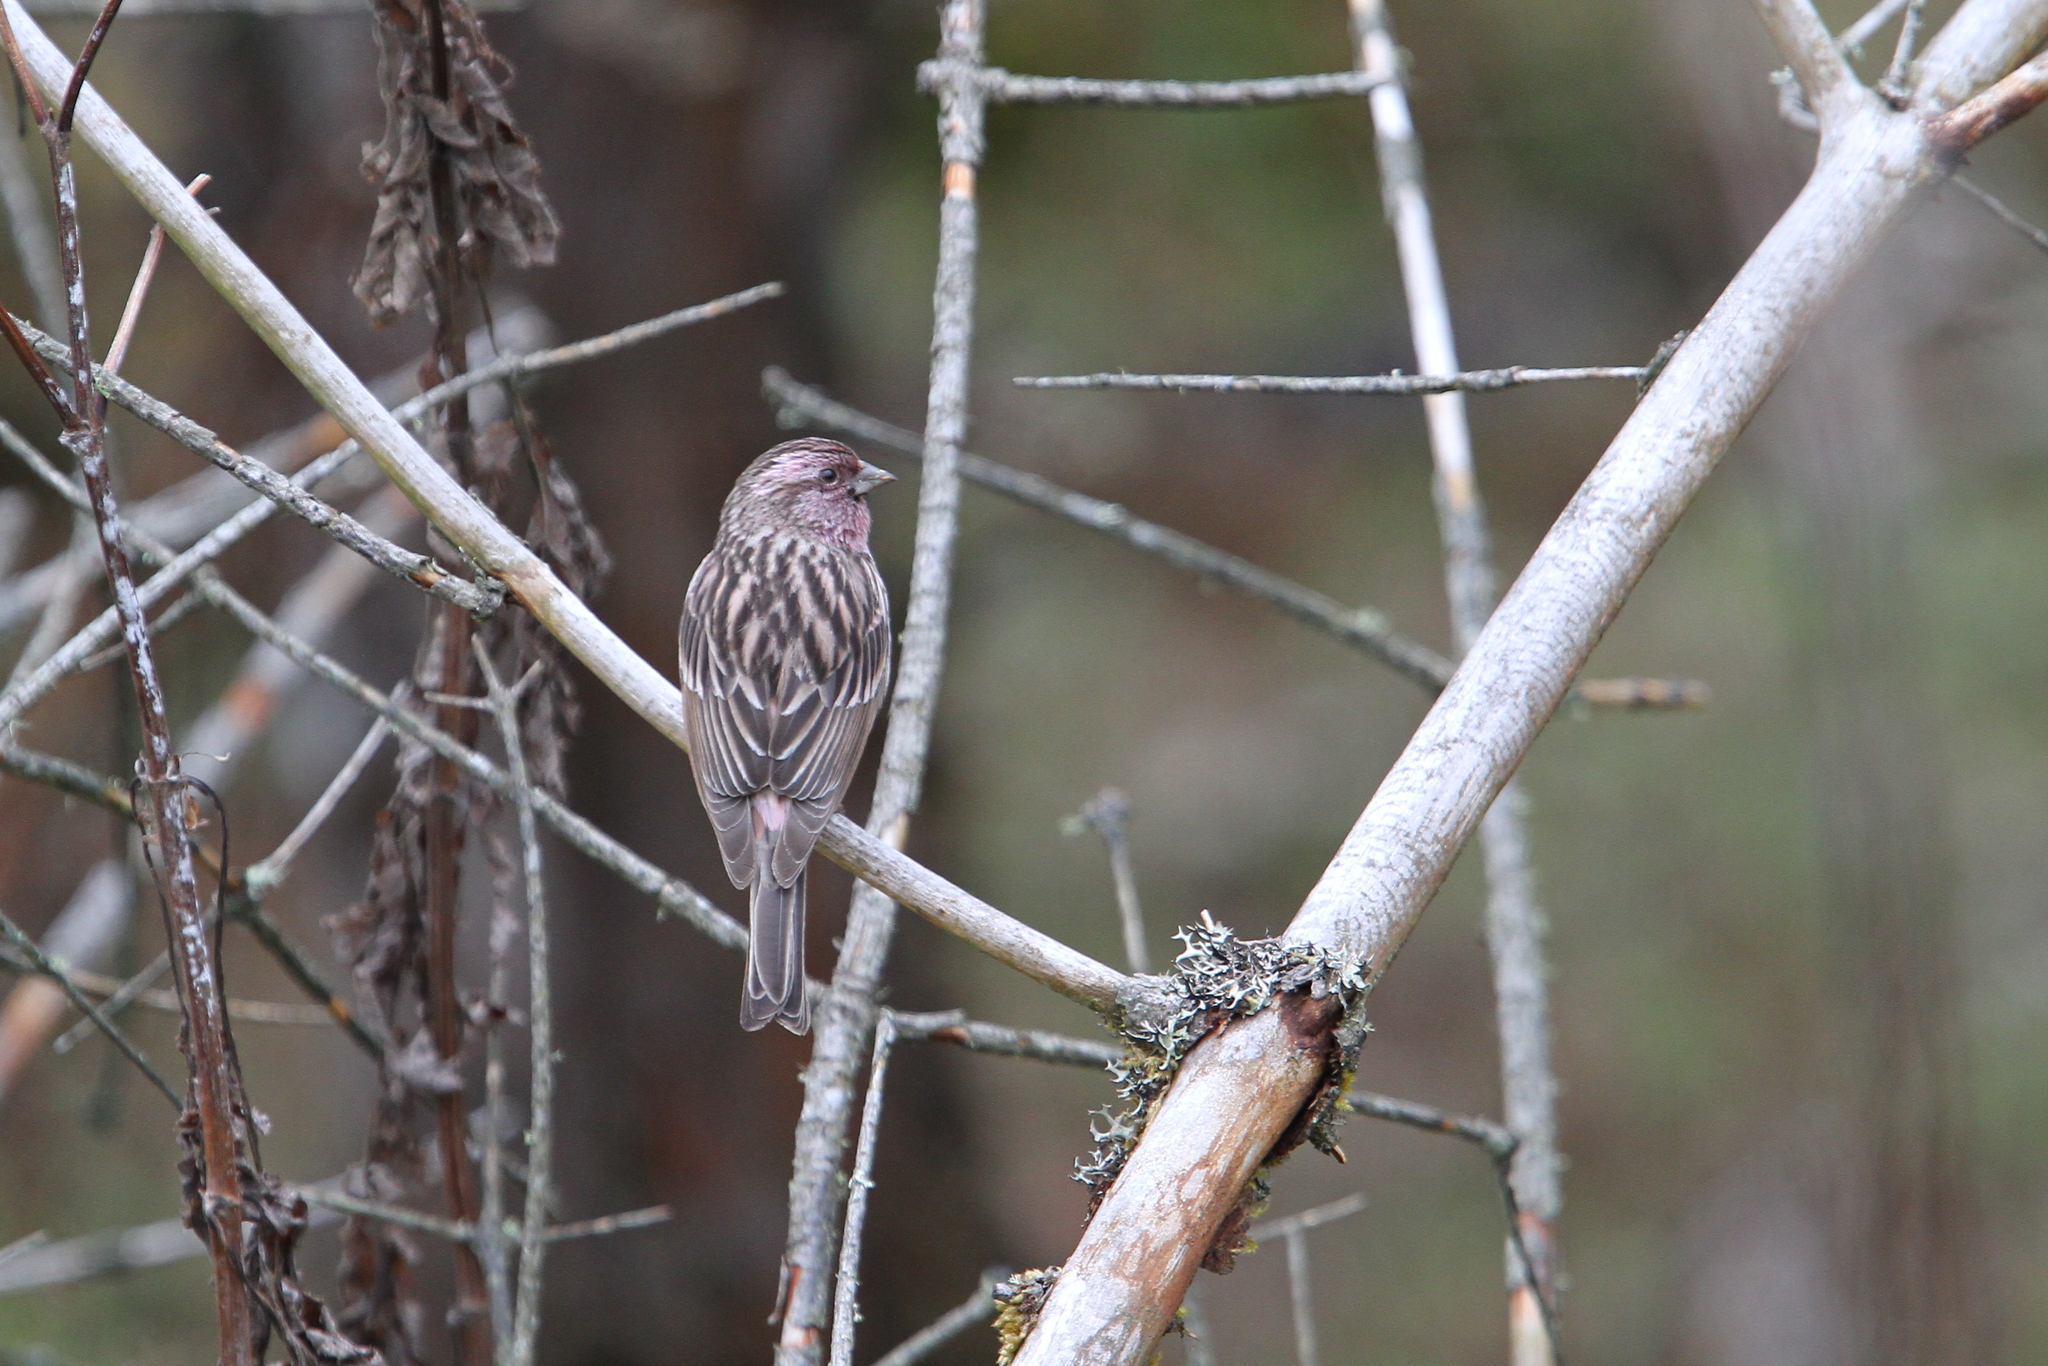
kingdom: Animalia
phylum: Chordata
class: Aves
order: Passeriformes
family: Fringillidae
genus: Carpodacus
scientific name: Carpodacus pulcherrimus
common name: Himalayan beautiful rosefinch
